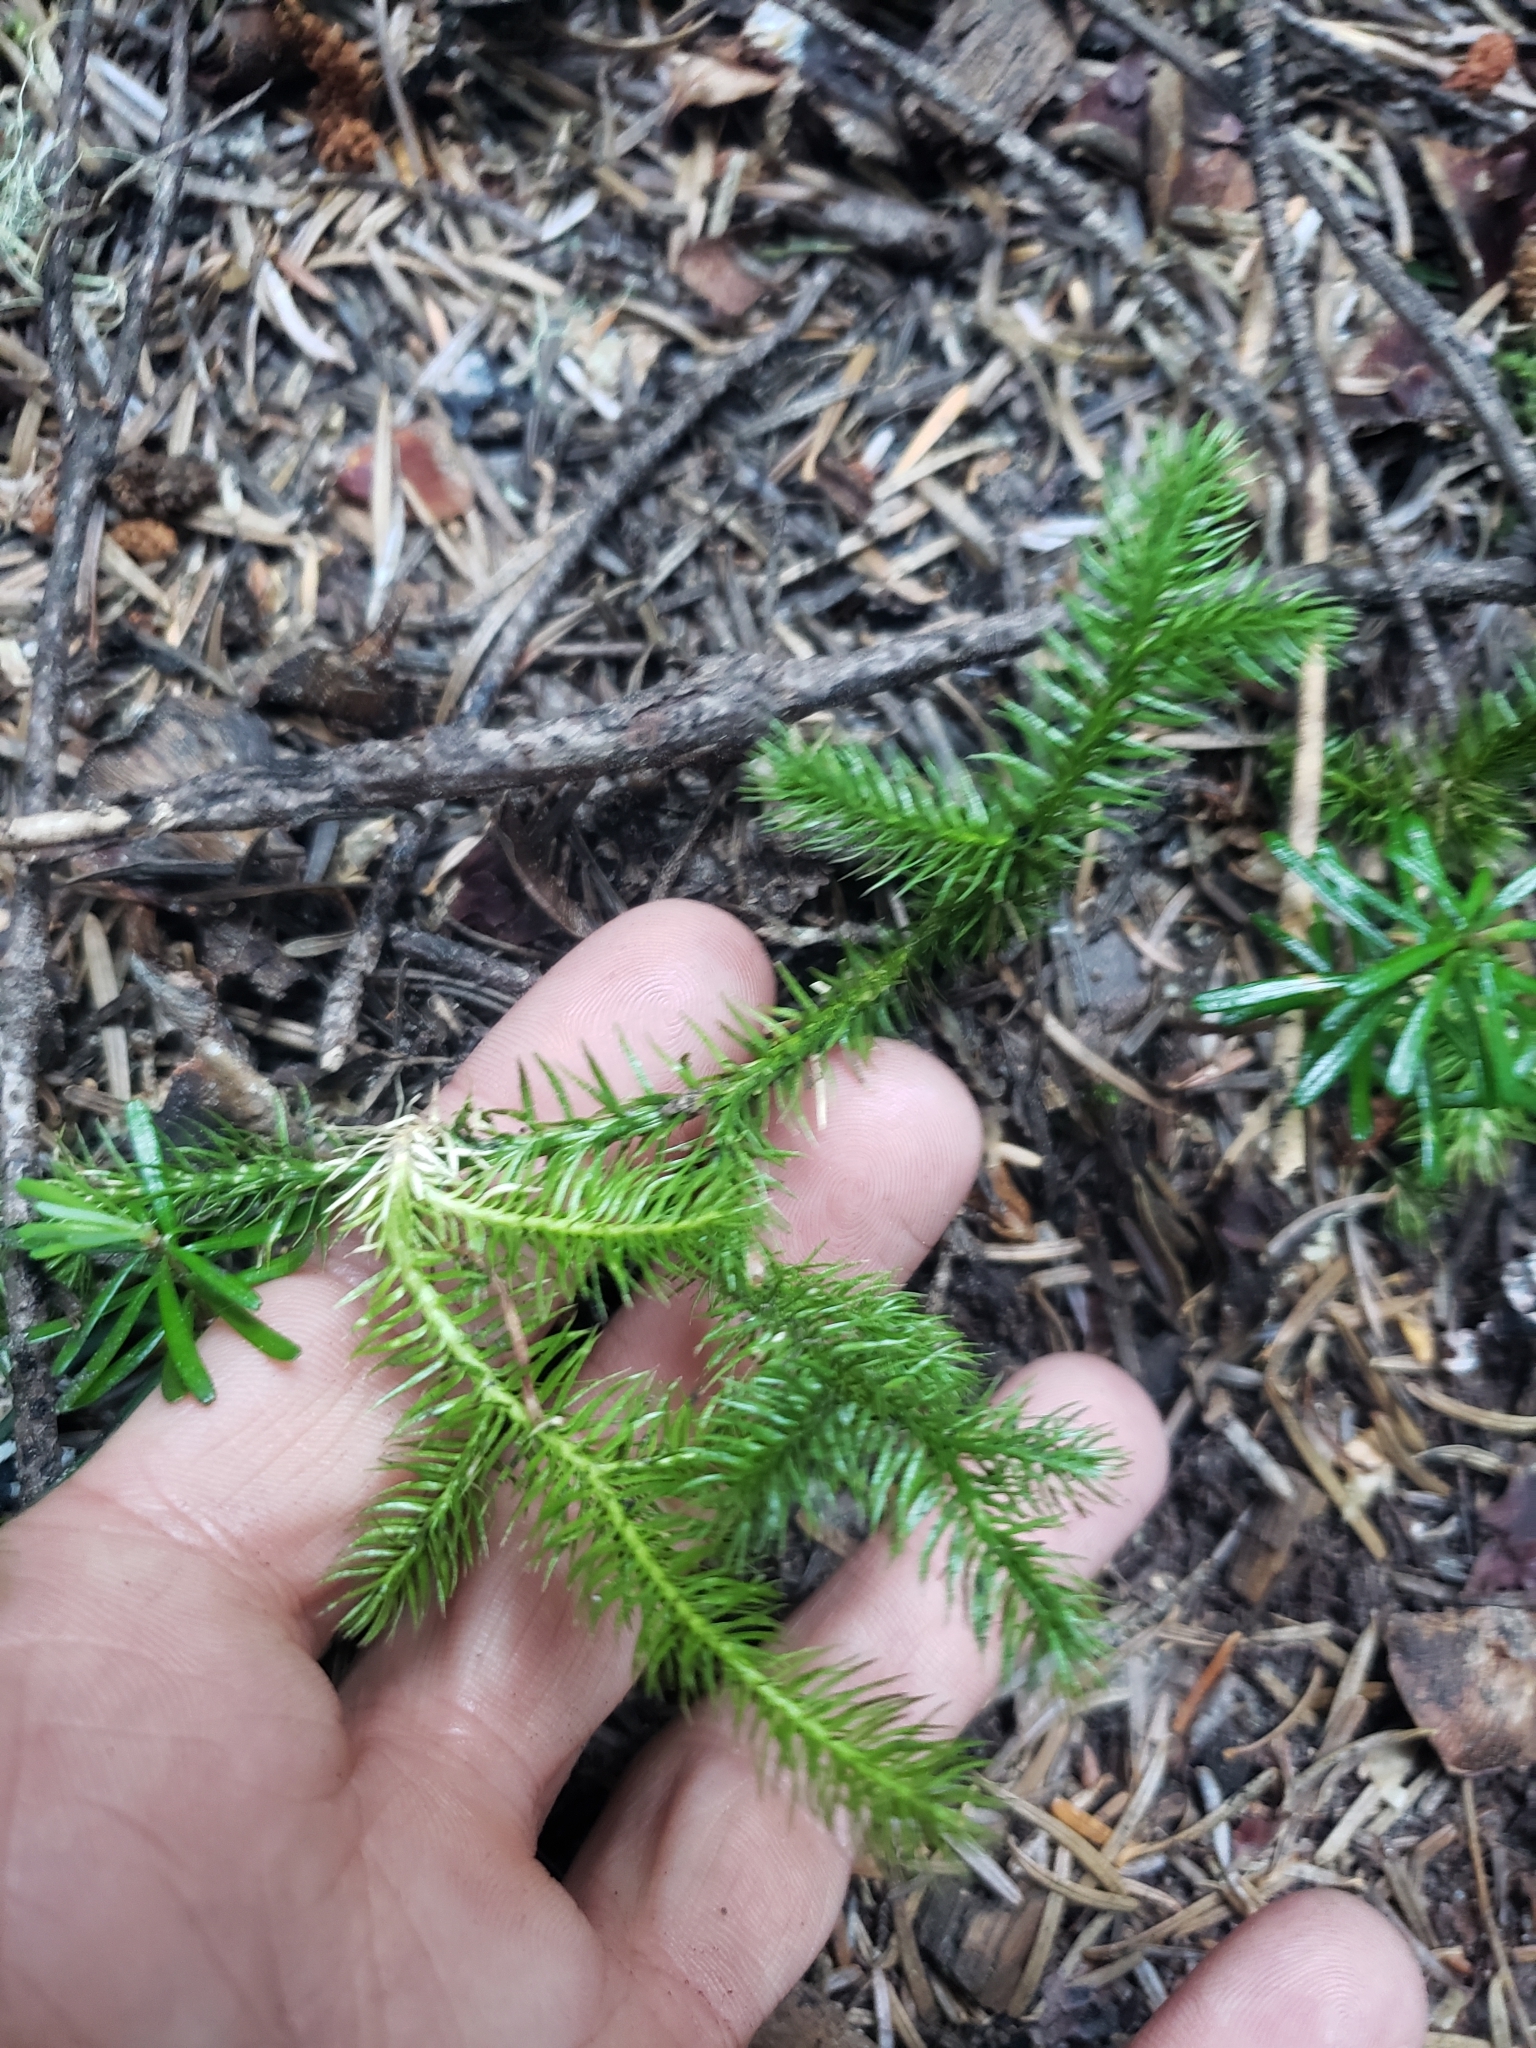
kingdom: Plantae
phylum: Tracheophyta
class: Lycopodiopsida
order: Lycopodiales
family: Lycopodiaceae
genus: Lycopodium
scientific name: Lycopodium clavatum
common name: Stag's-horn clubmoss
